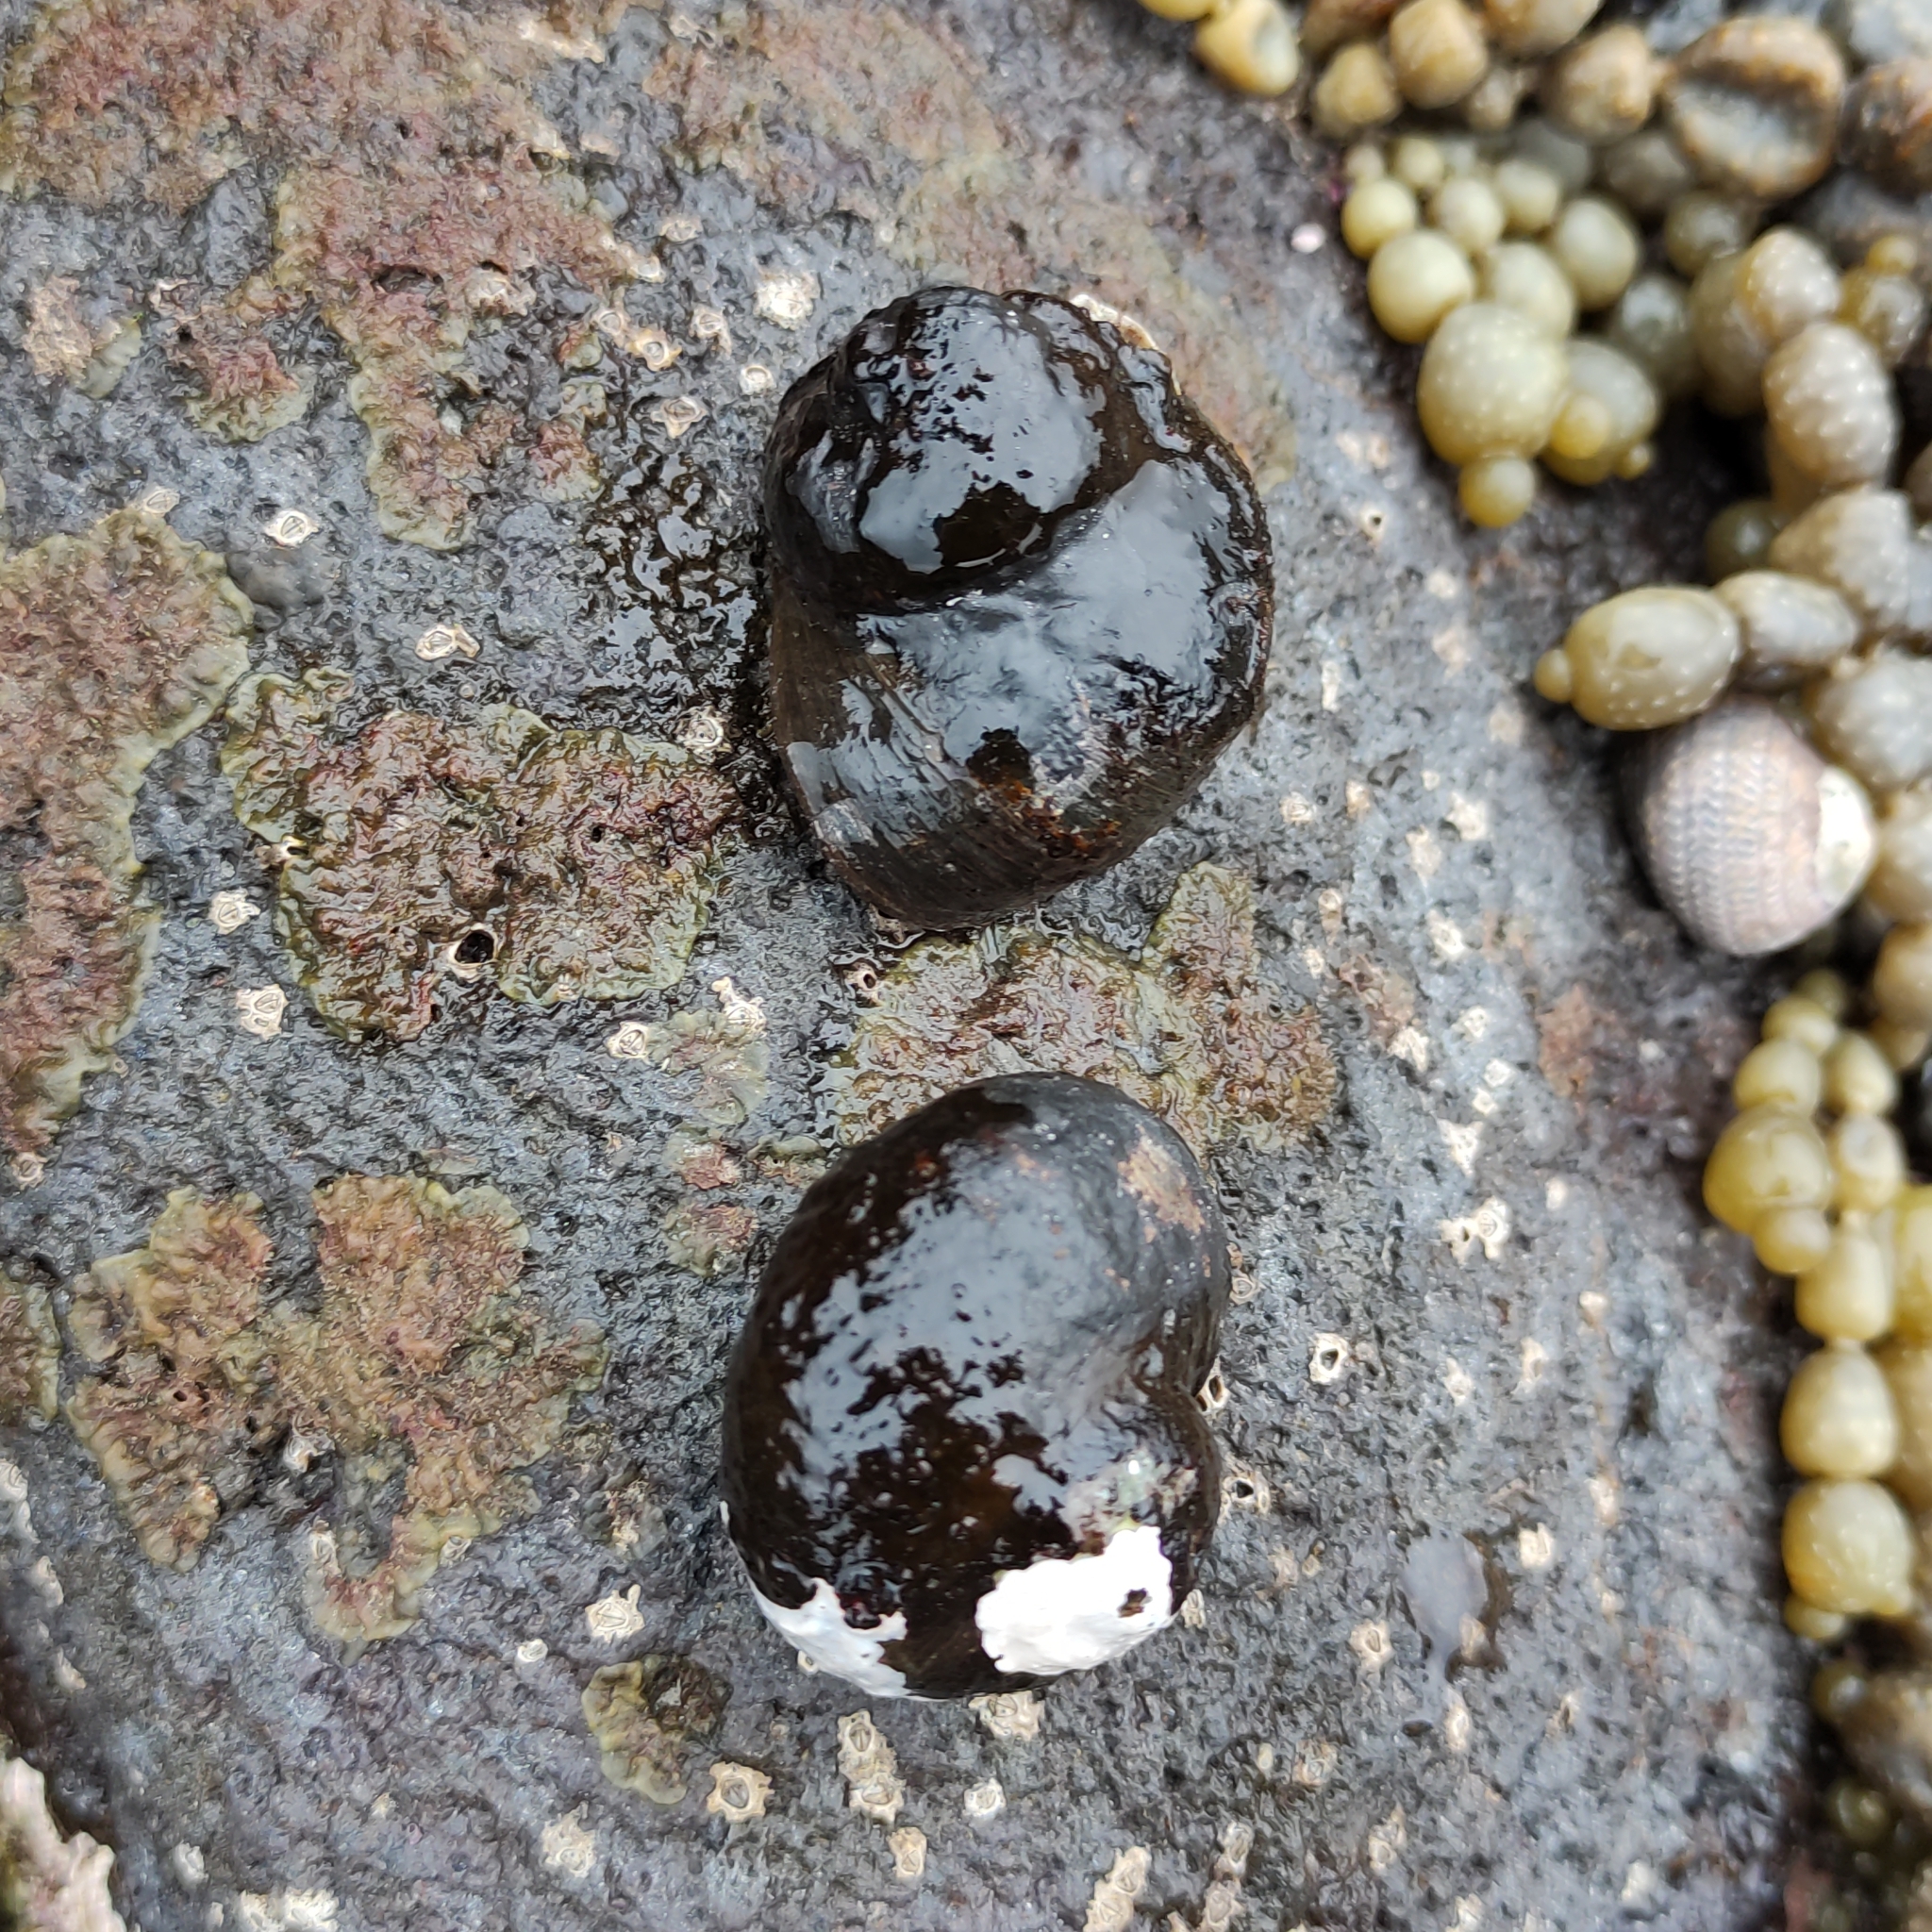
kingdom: Animalia
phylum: Mollusca
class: Gastropoda
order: Trochida
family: Turbinidae
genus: Lunella
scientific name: Lunella smaragda
